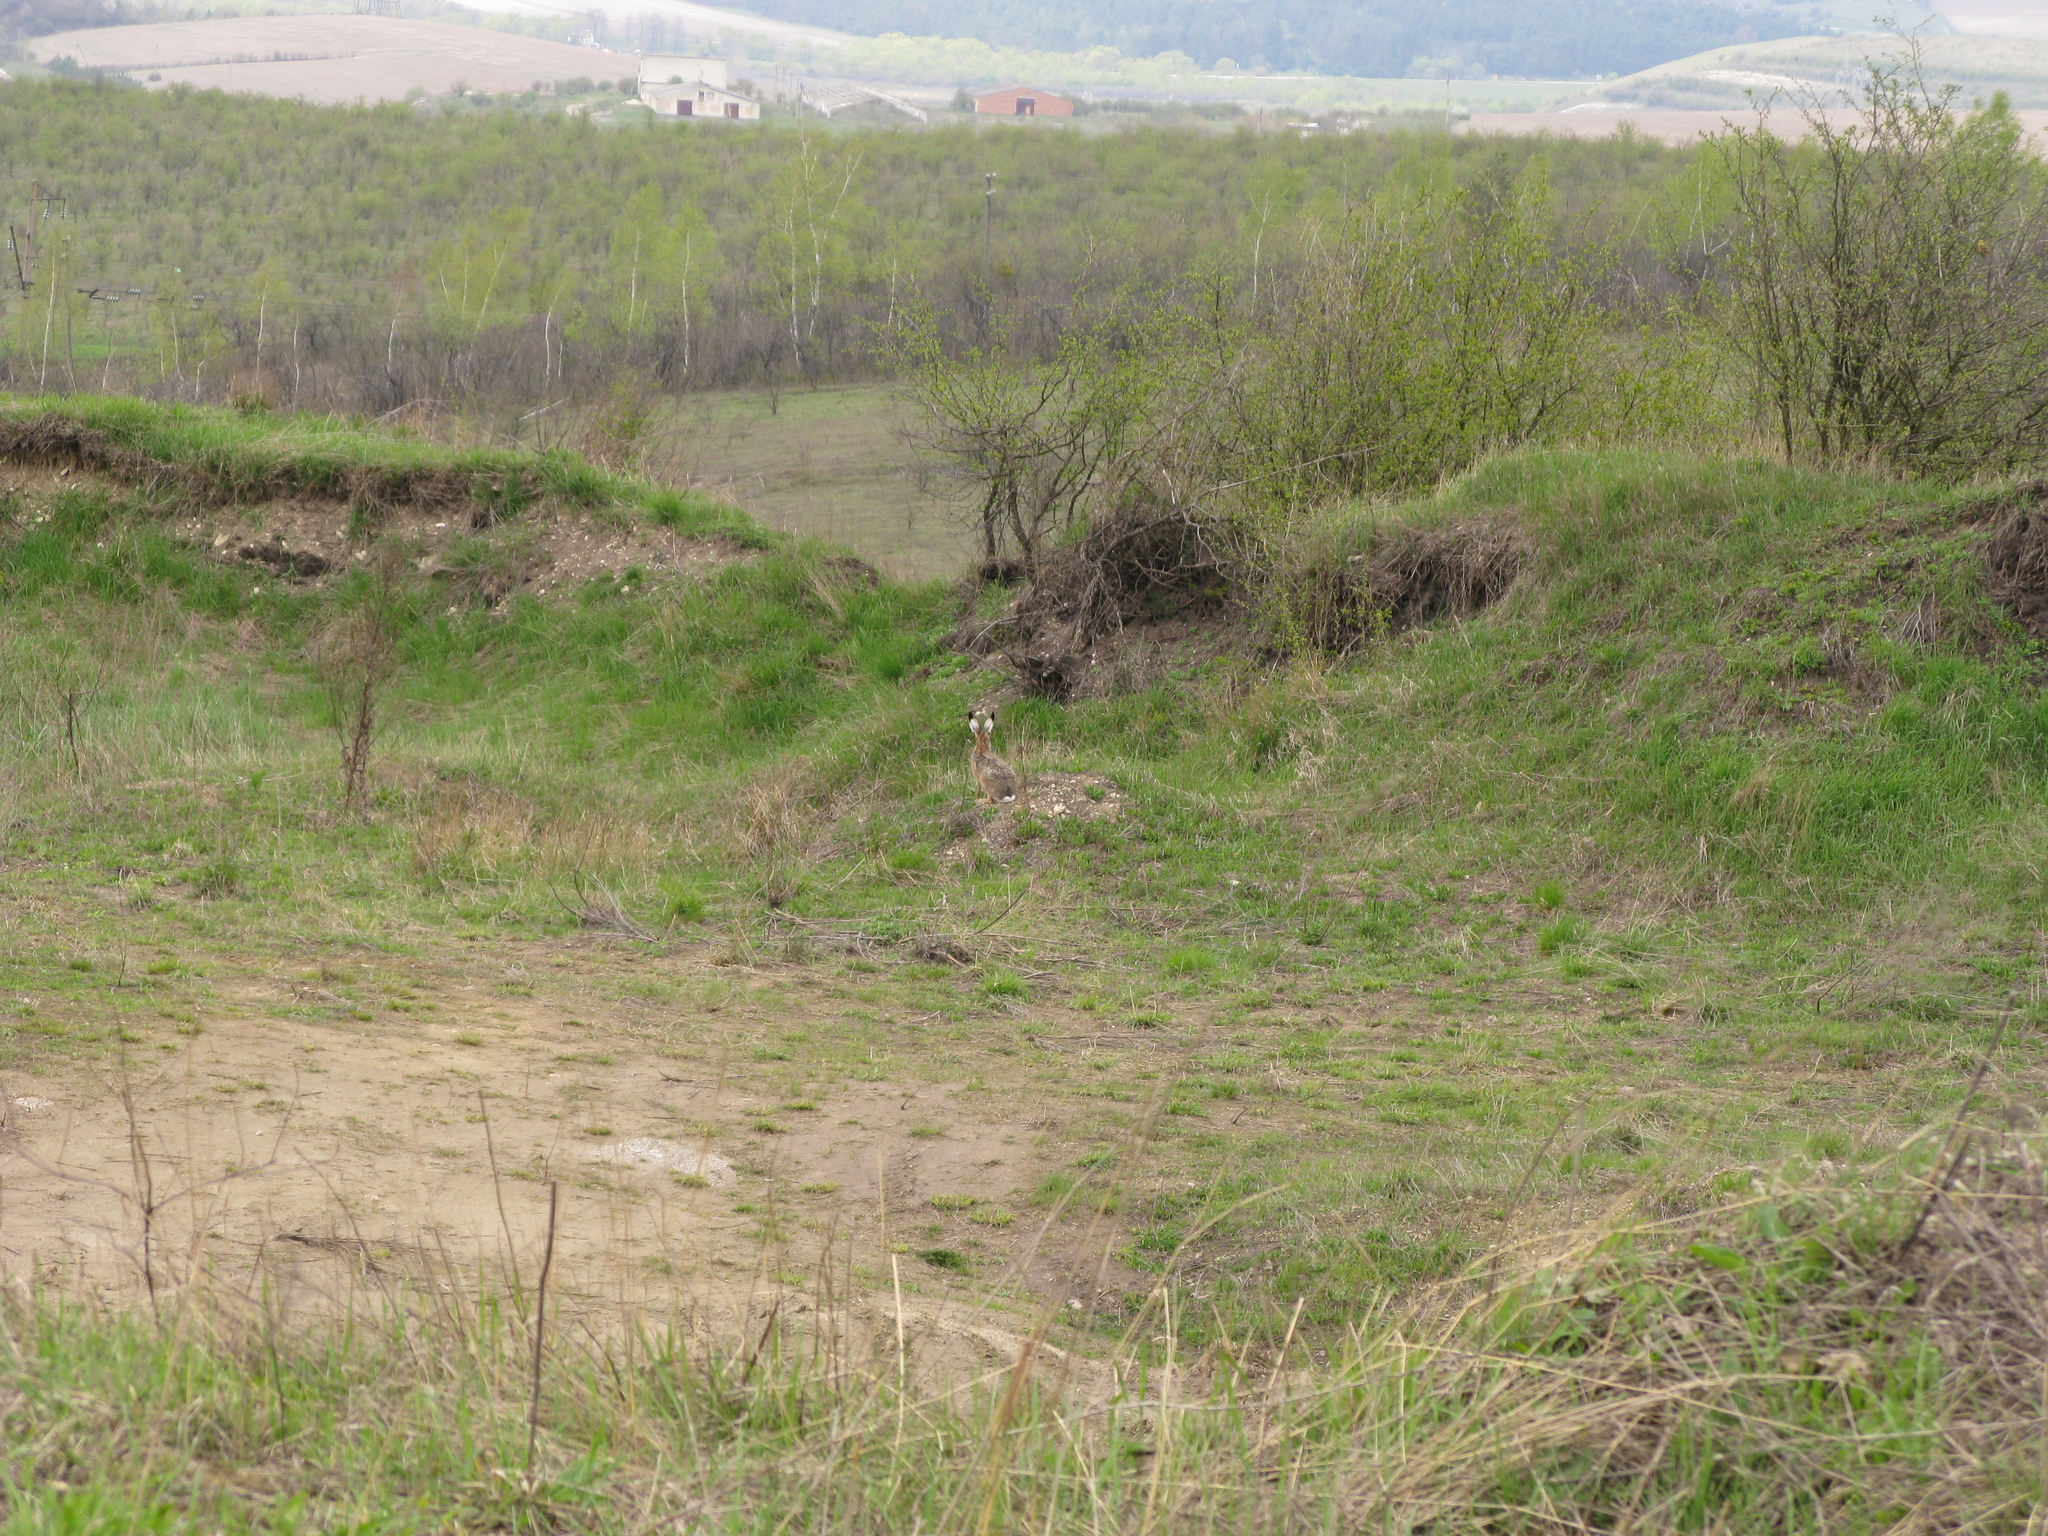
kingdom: Animalia
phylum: Chordata
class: Mammalia
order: Lagomorpha
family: Leporidae
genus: Lepus
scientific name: Lepus europaeus
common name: European hare
